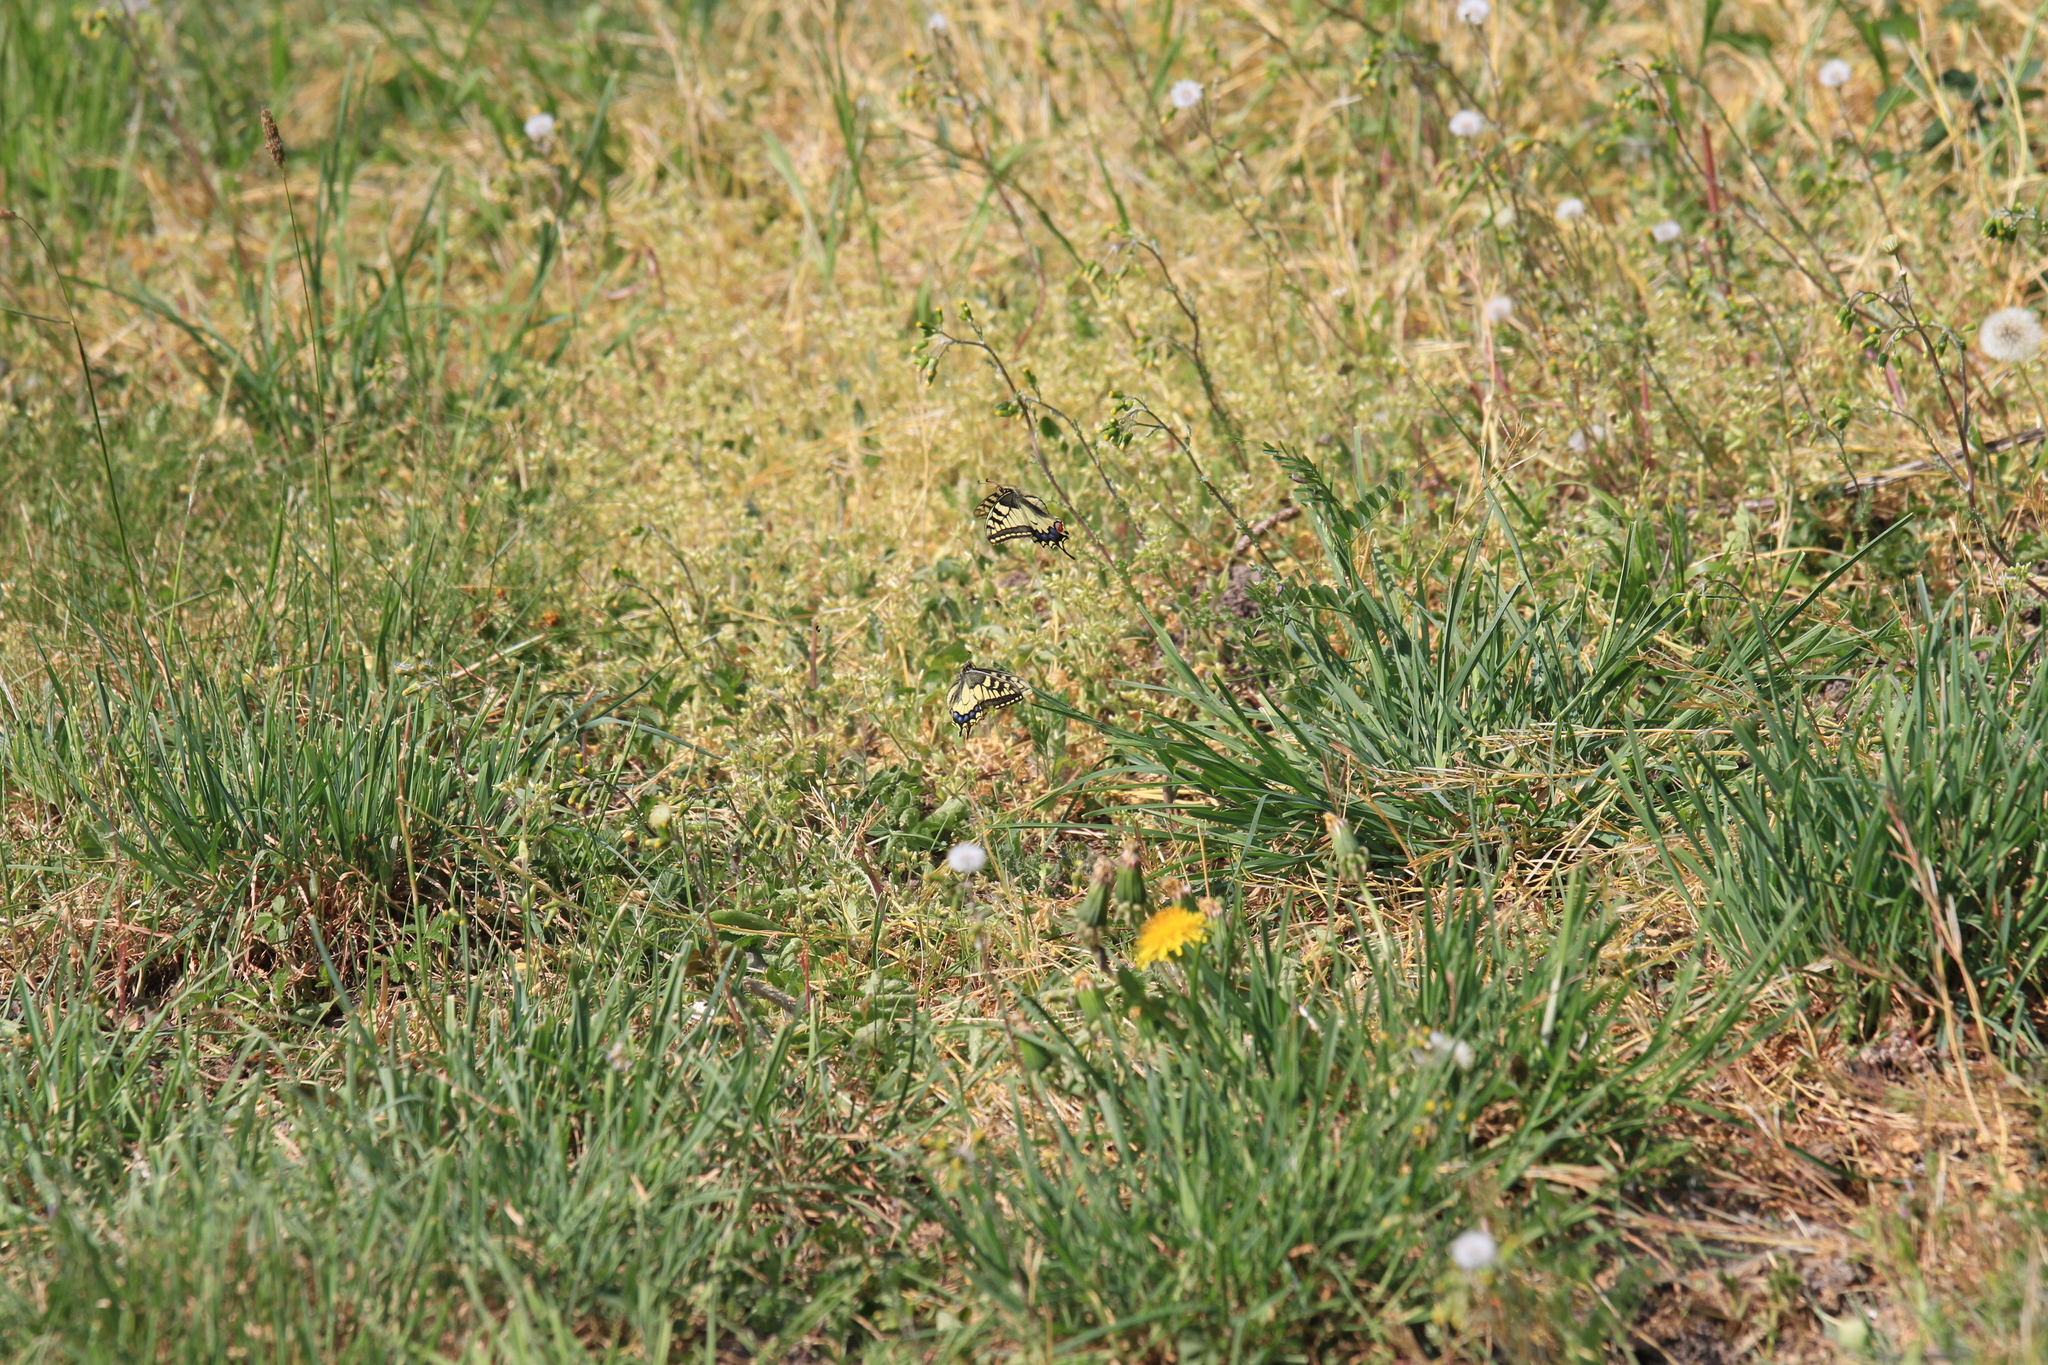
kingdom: Animalia
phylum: Arthropoda
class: Insecta
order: Lepidoptera
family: Papilionidae
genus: Papilio
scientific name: Papilio machaon
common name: Swallowtail
